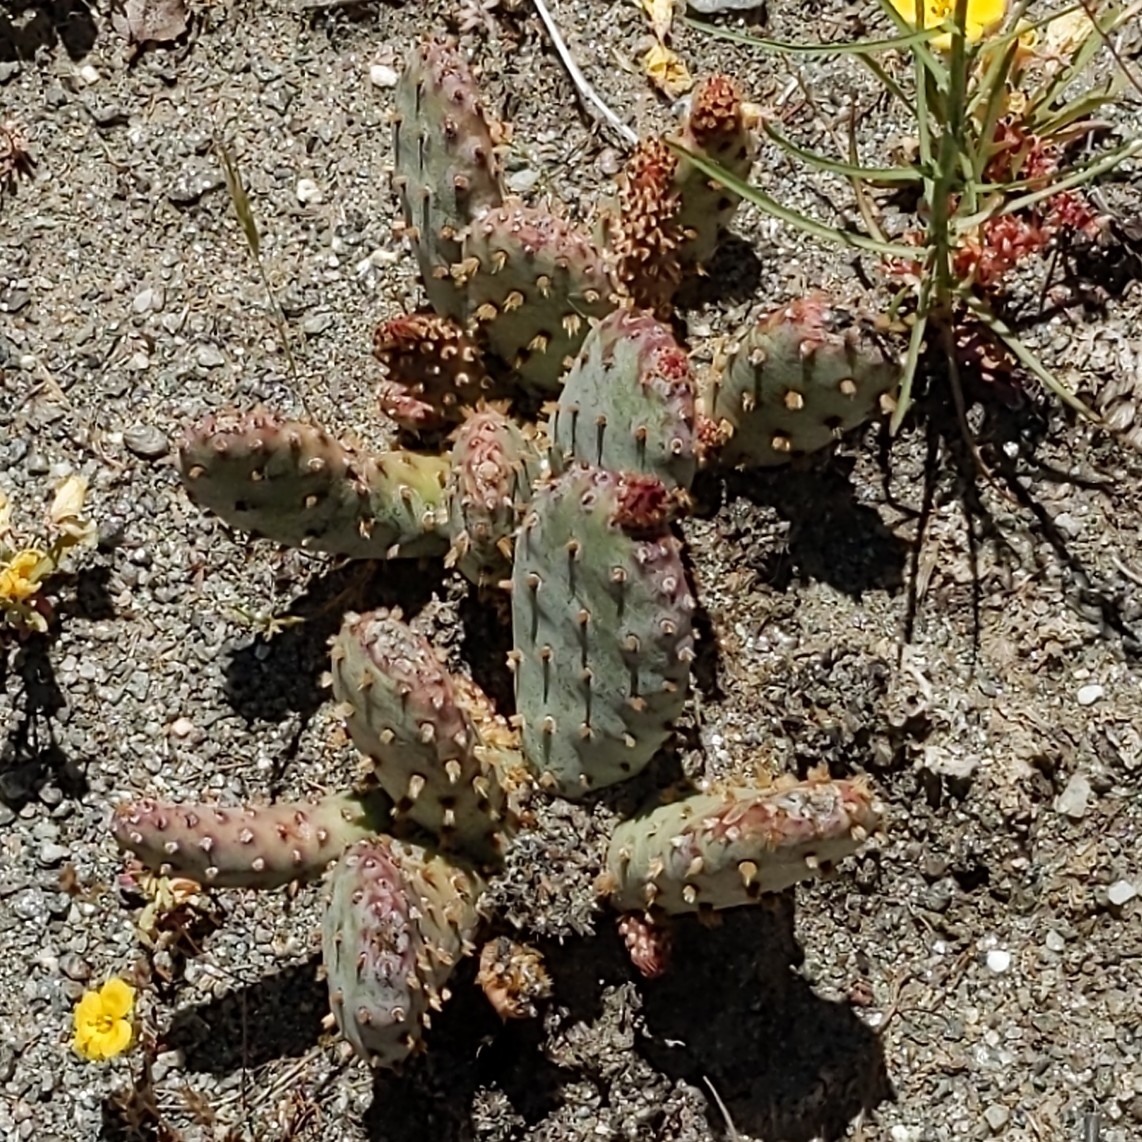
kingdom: Plantae
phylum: Tracheophyta
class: Magnoliopsida
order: Caryophyllales
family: Cactaceae
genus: Opuntia
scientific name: Opuntia basilaris
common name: Beavertail prickly-pear
